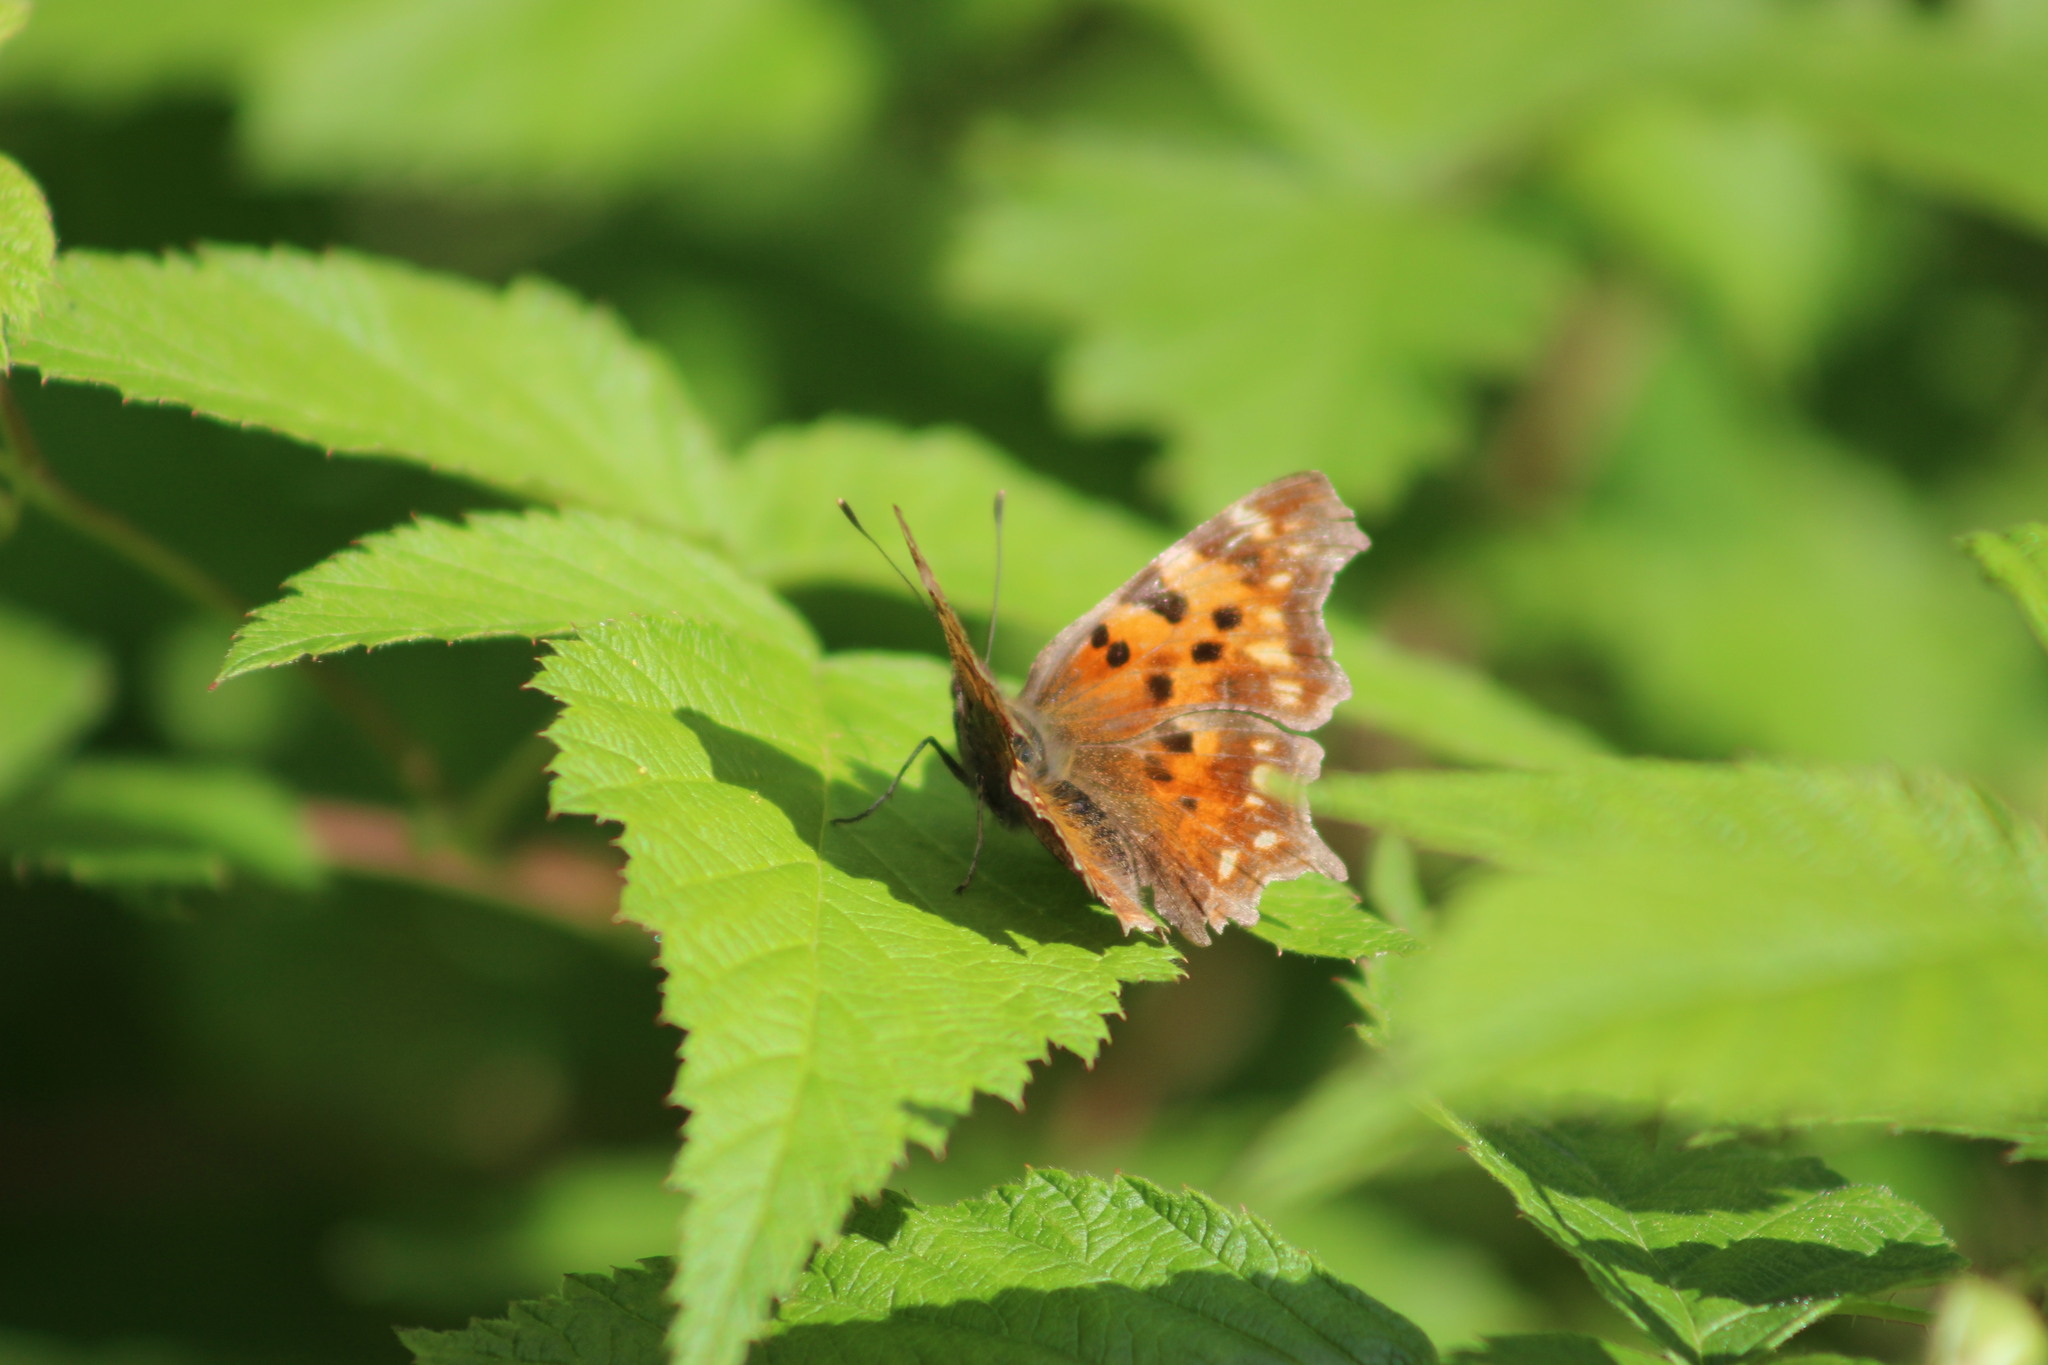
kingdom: Animalia
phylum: Arthropoda
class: Insecta
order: Lepidoptera
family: Nymphalidae
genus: Polygonia
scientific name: Polygonia c-album
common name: Comma
